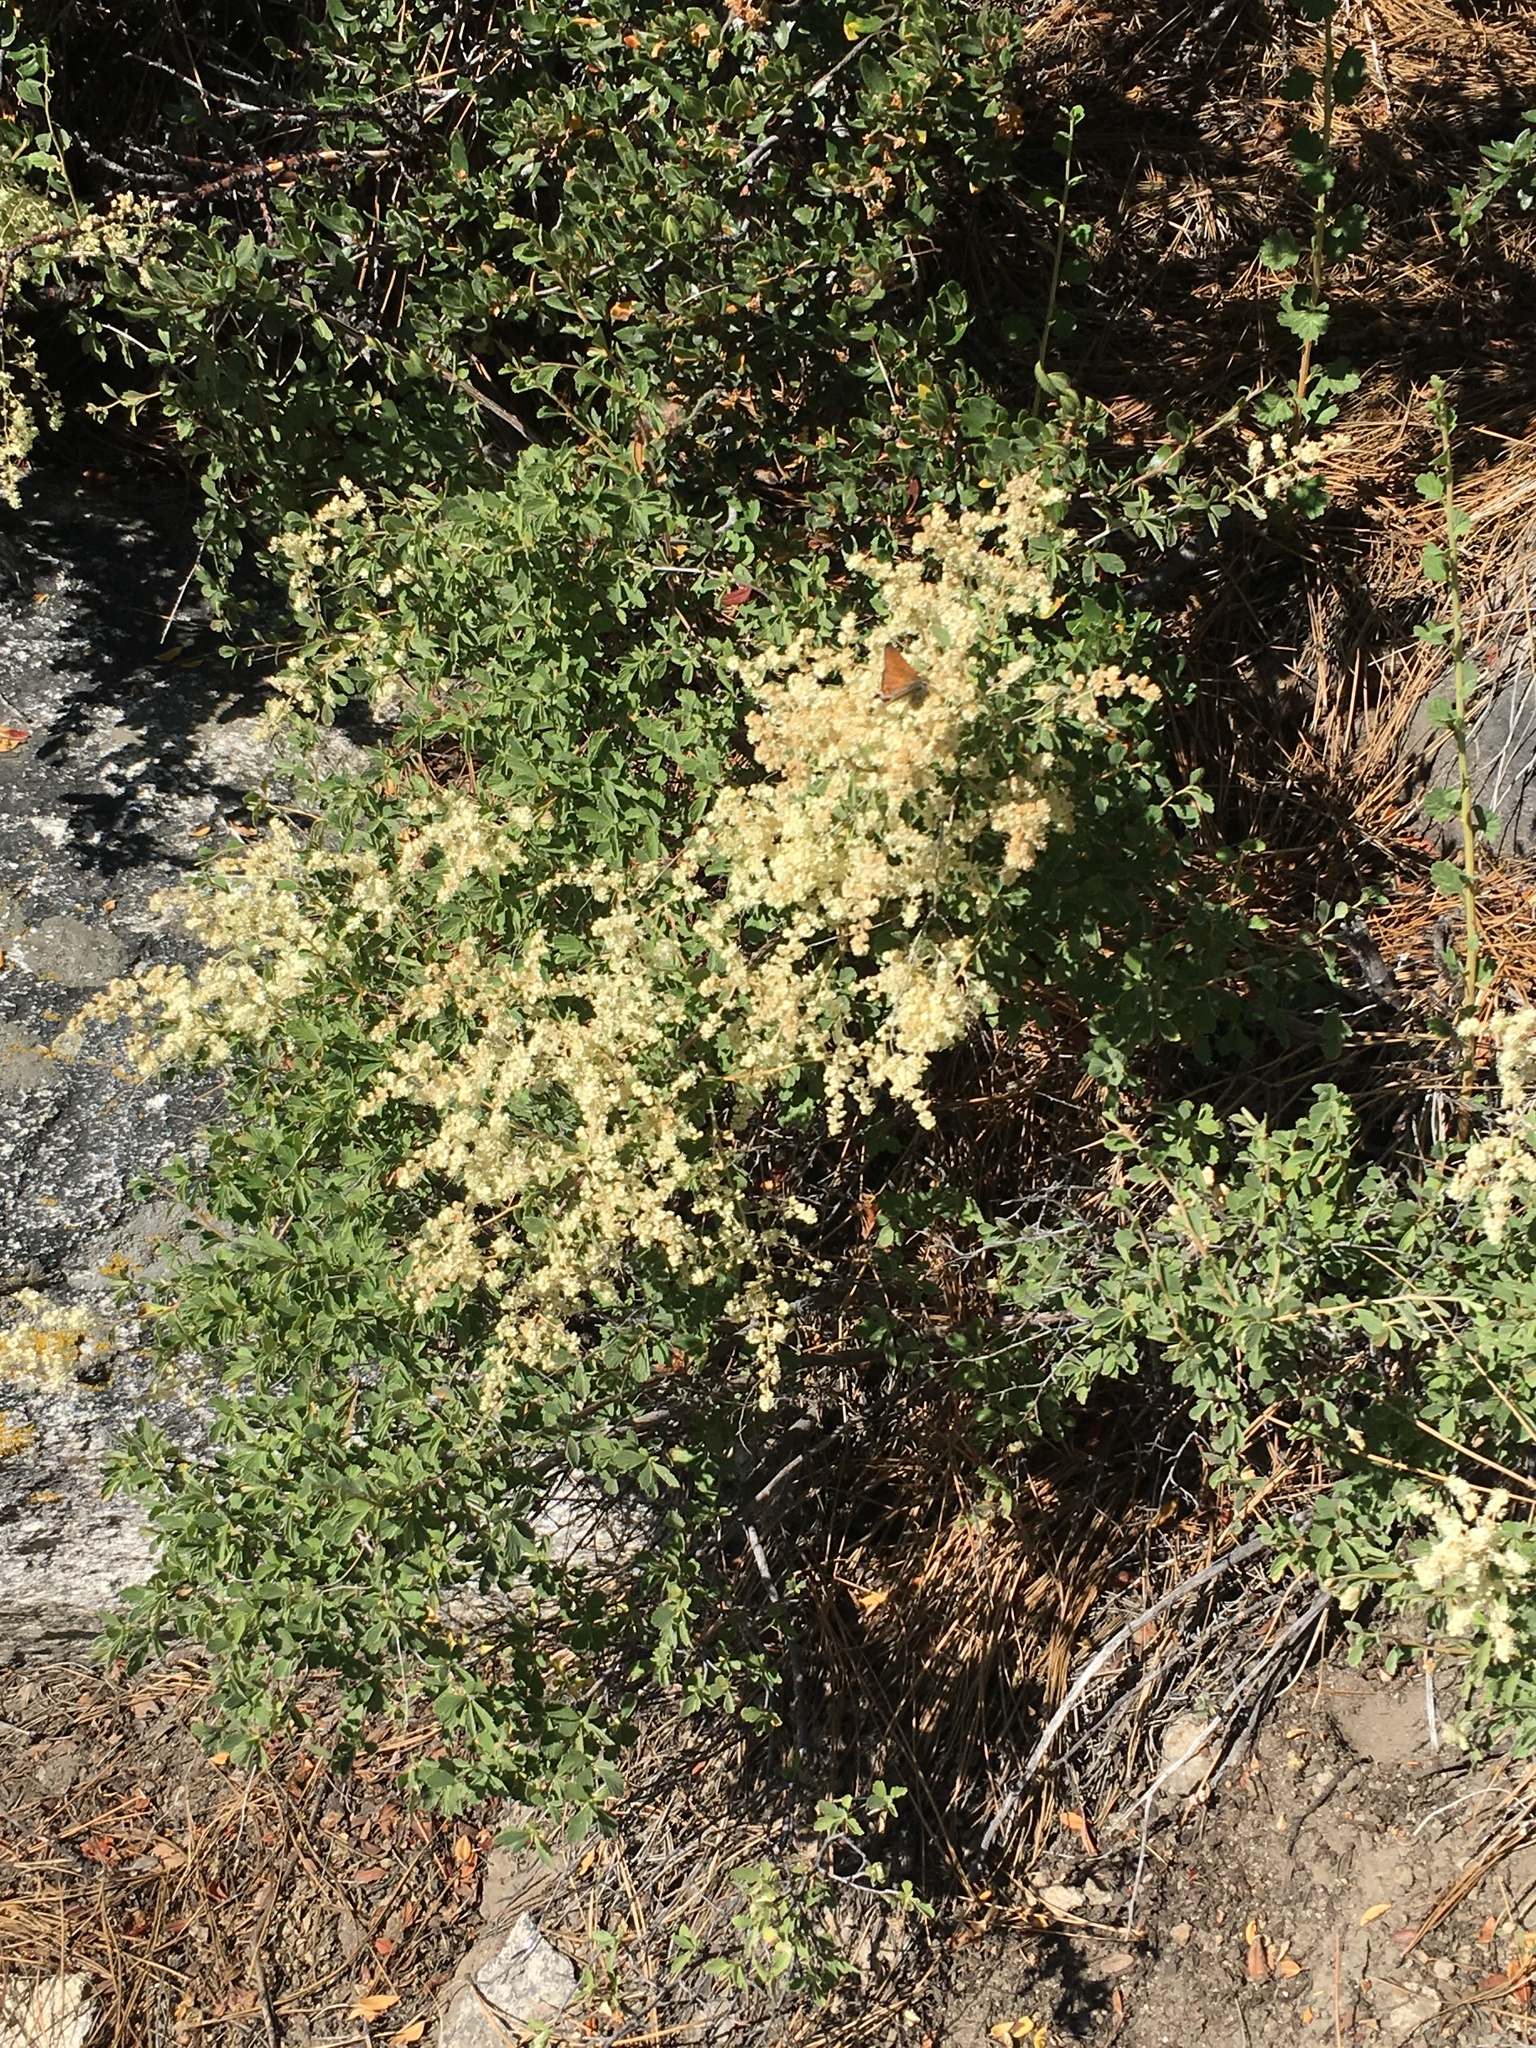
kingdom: Plantae
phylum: Tracheophyta
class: Magnoliopsida
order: Rosales
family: Rosaceae
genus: Holodiscus
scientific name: Holodiscus discolor
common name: Oceanspray
